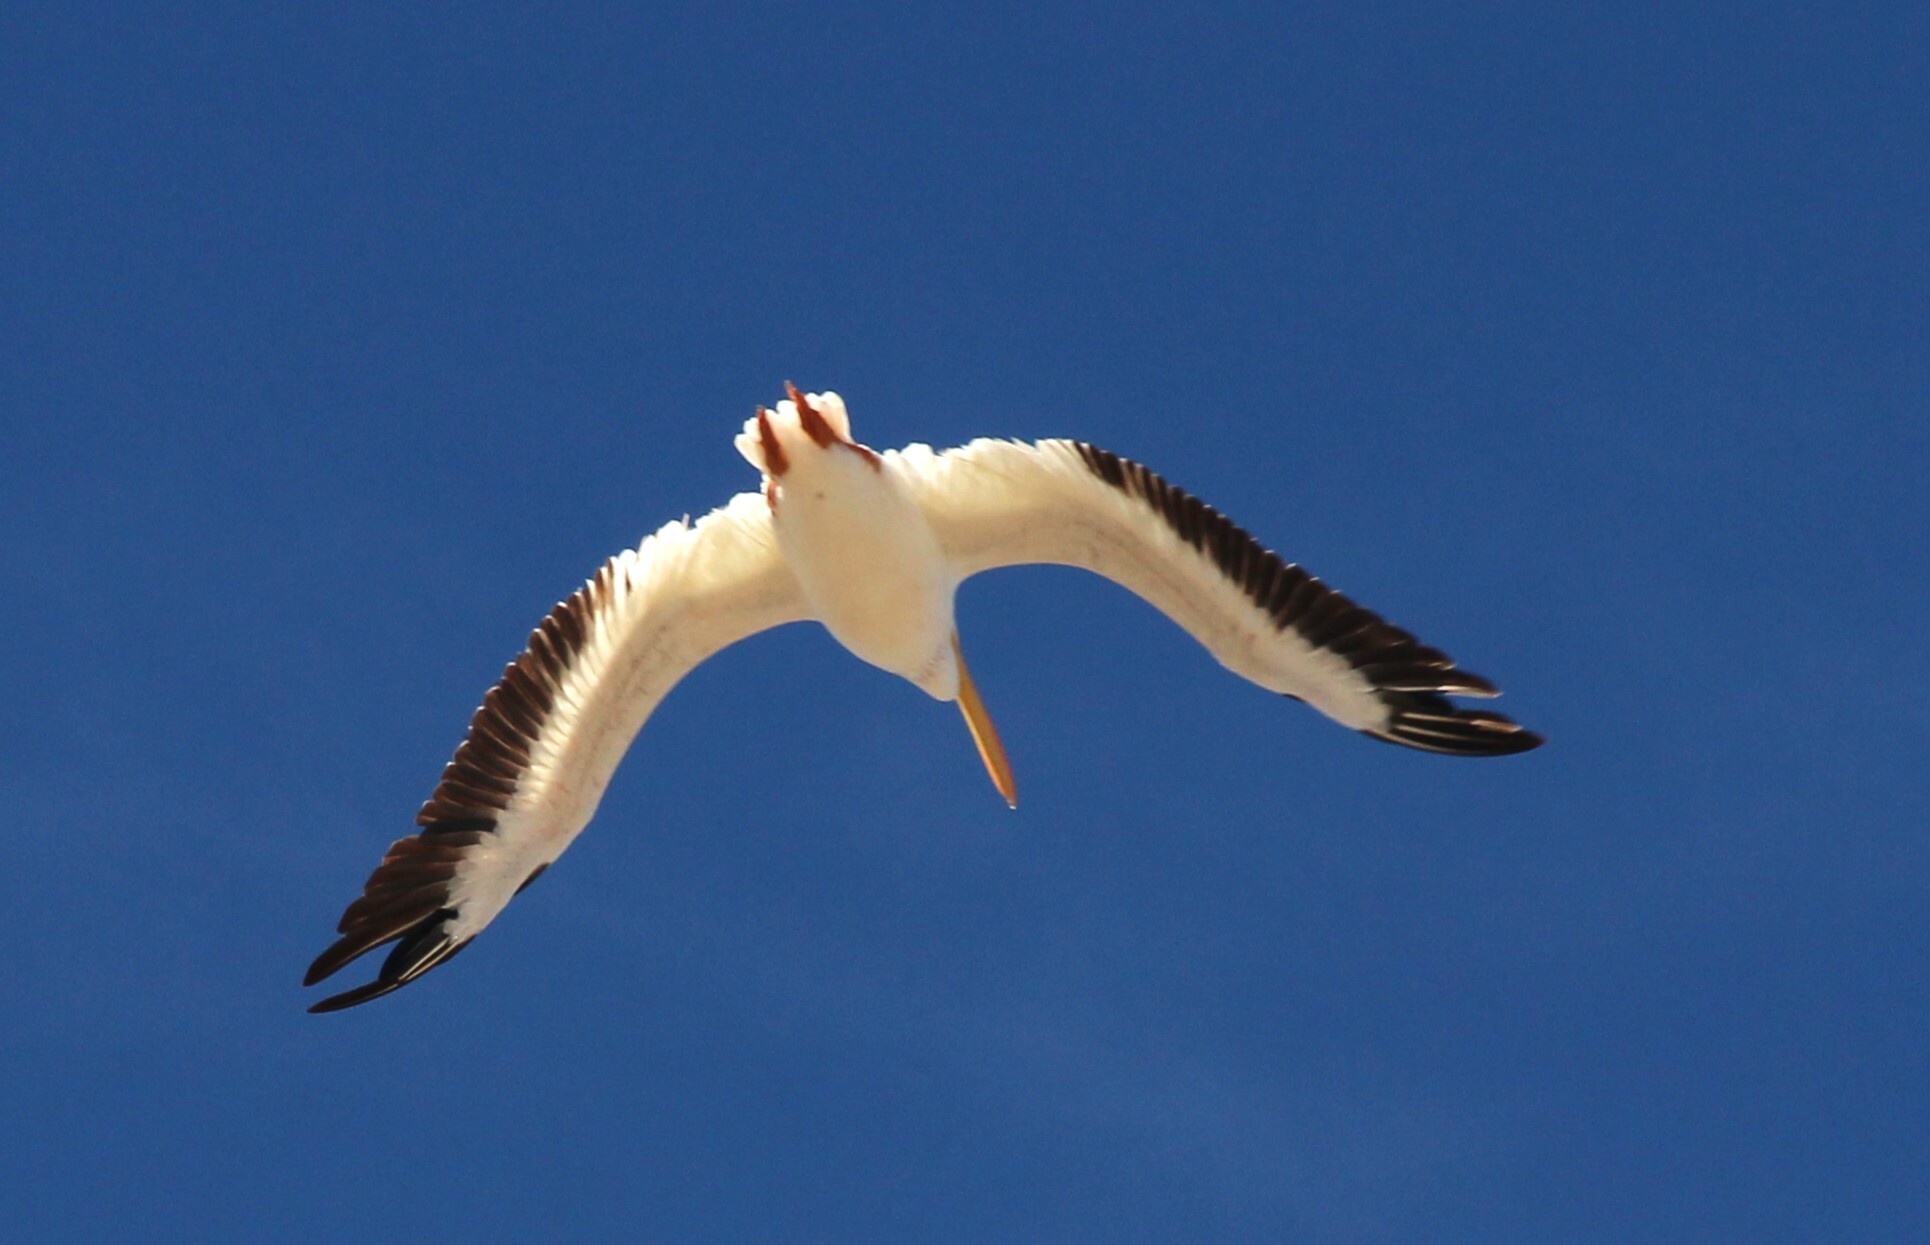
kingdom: Animalia
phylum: Chordata
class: Aves
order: Pelecaniformes
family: Pelecanidae
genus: Pelecanus
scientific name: Pelecanus erythrorhynchos
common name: American white pelican
